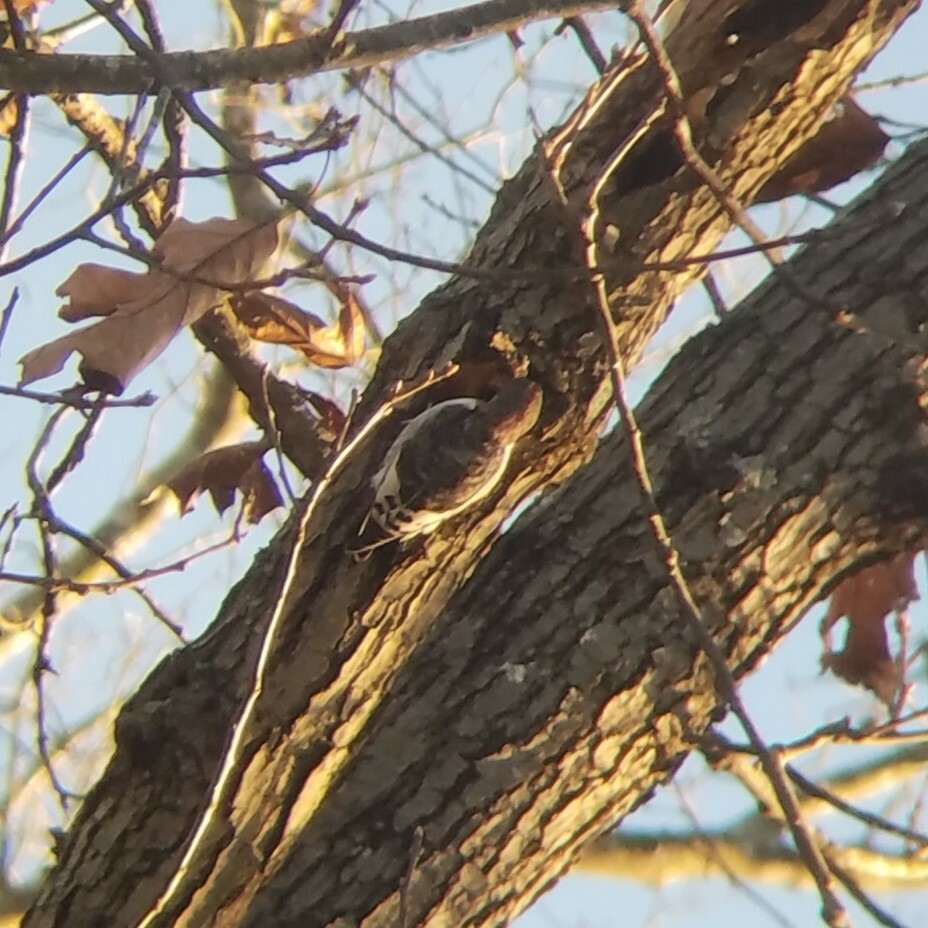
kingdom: Animalia
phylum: Chordata
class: Aves
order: Piciformes
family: Picidae
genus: Melanerpes
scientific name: Melanerpes erythrocephalus
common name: Red-headed woodpecker
